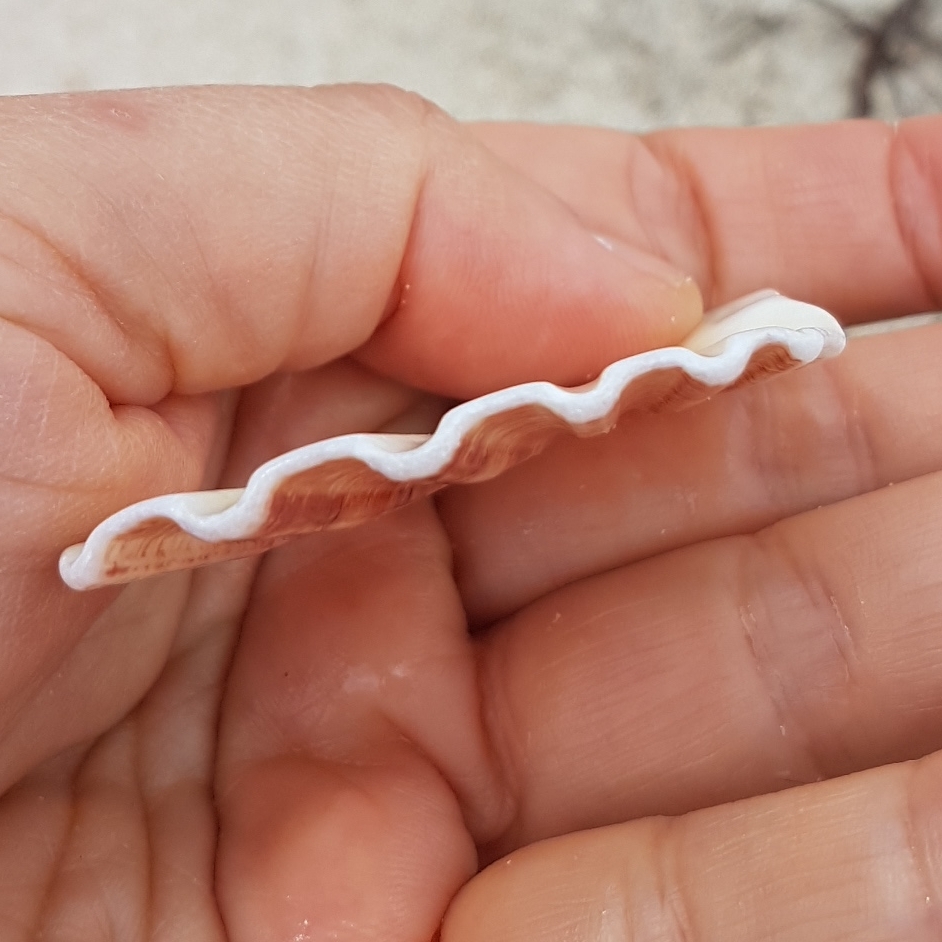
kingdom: Animalia
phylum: Mollusca
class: Bivalvia
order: Pectinida
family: Pectinidae
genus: Pecten
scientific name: Pecten maximus
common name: Great scallop
